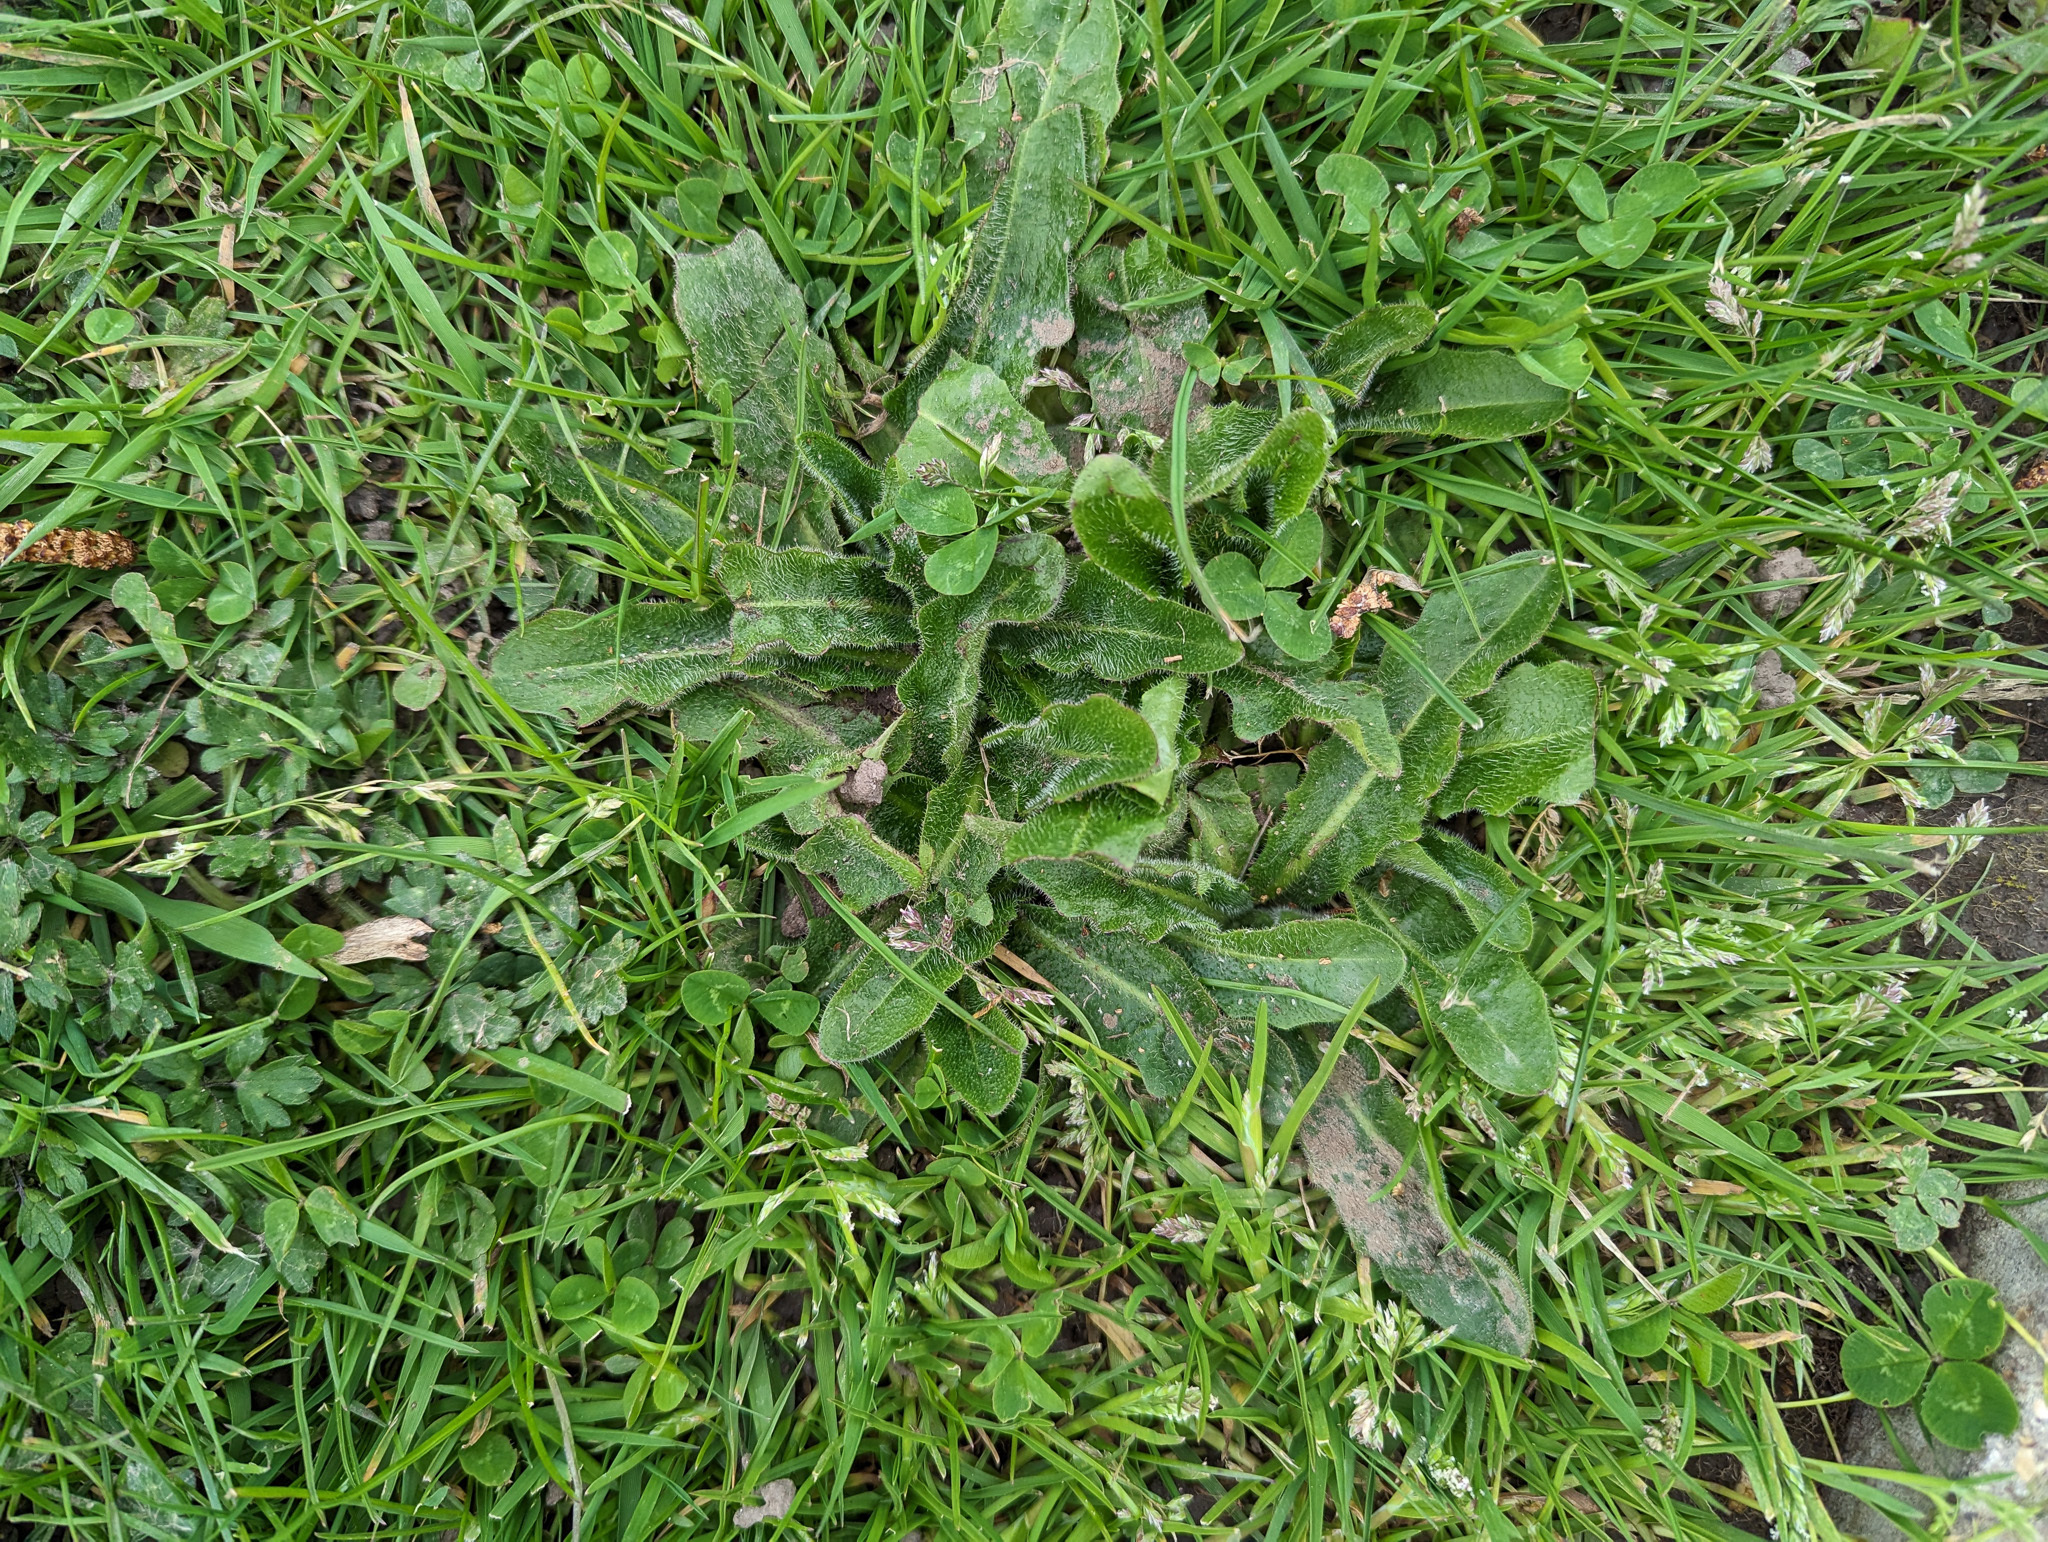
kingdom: Plantae
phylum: Tracheophyta
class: Magnoliopsida
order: Asterales
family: Asteraceae
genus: Hypochaeris
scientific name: Hypochaeris radicata
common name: Flatweed
